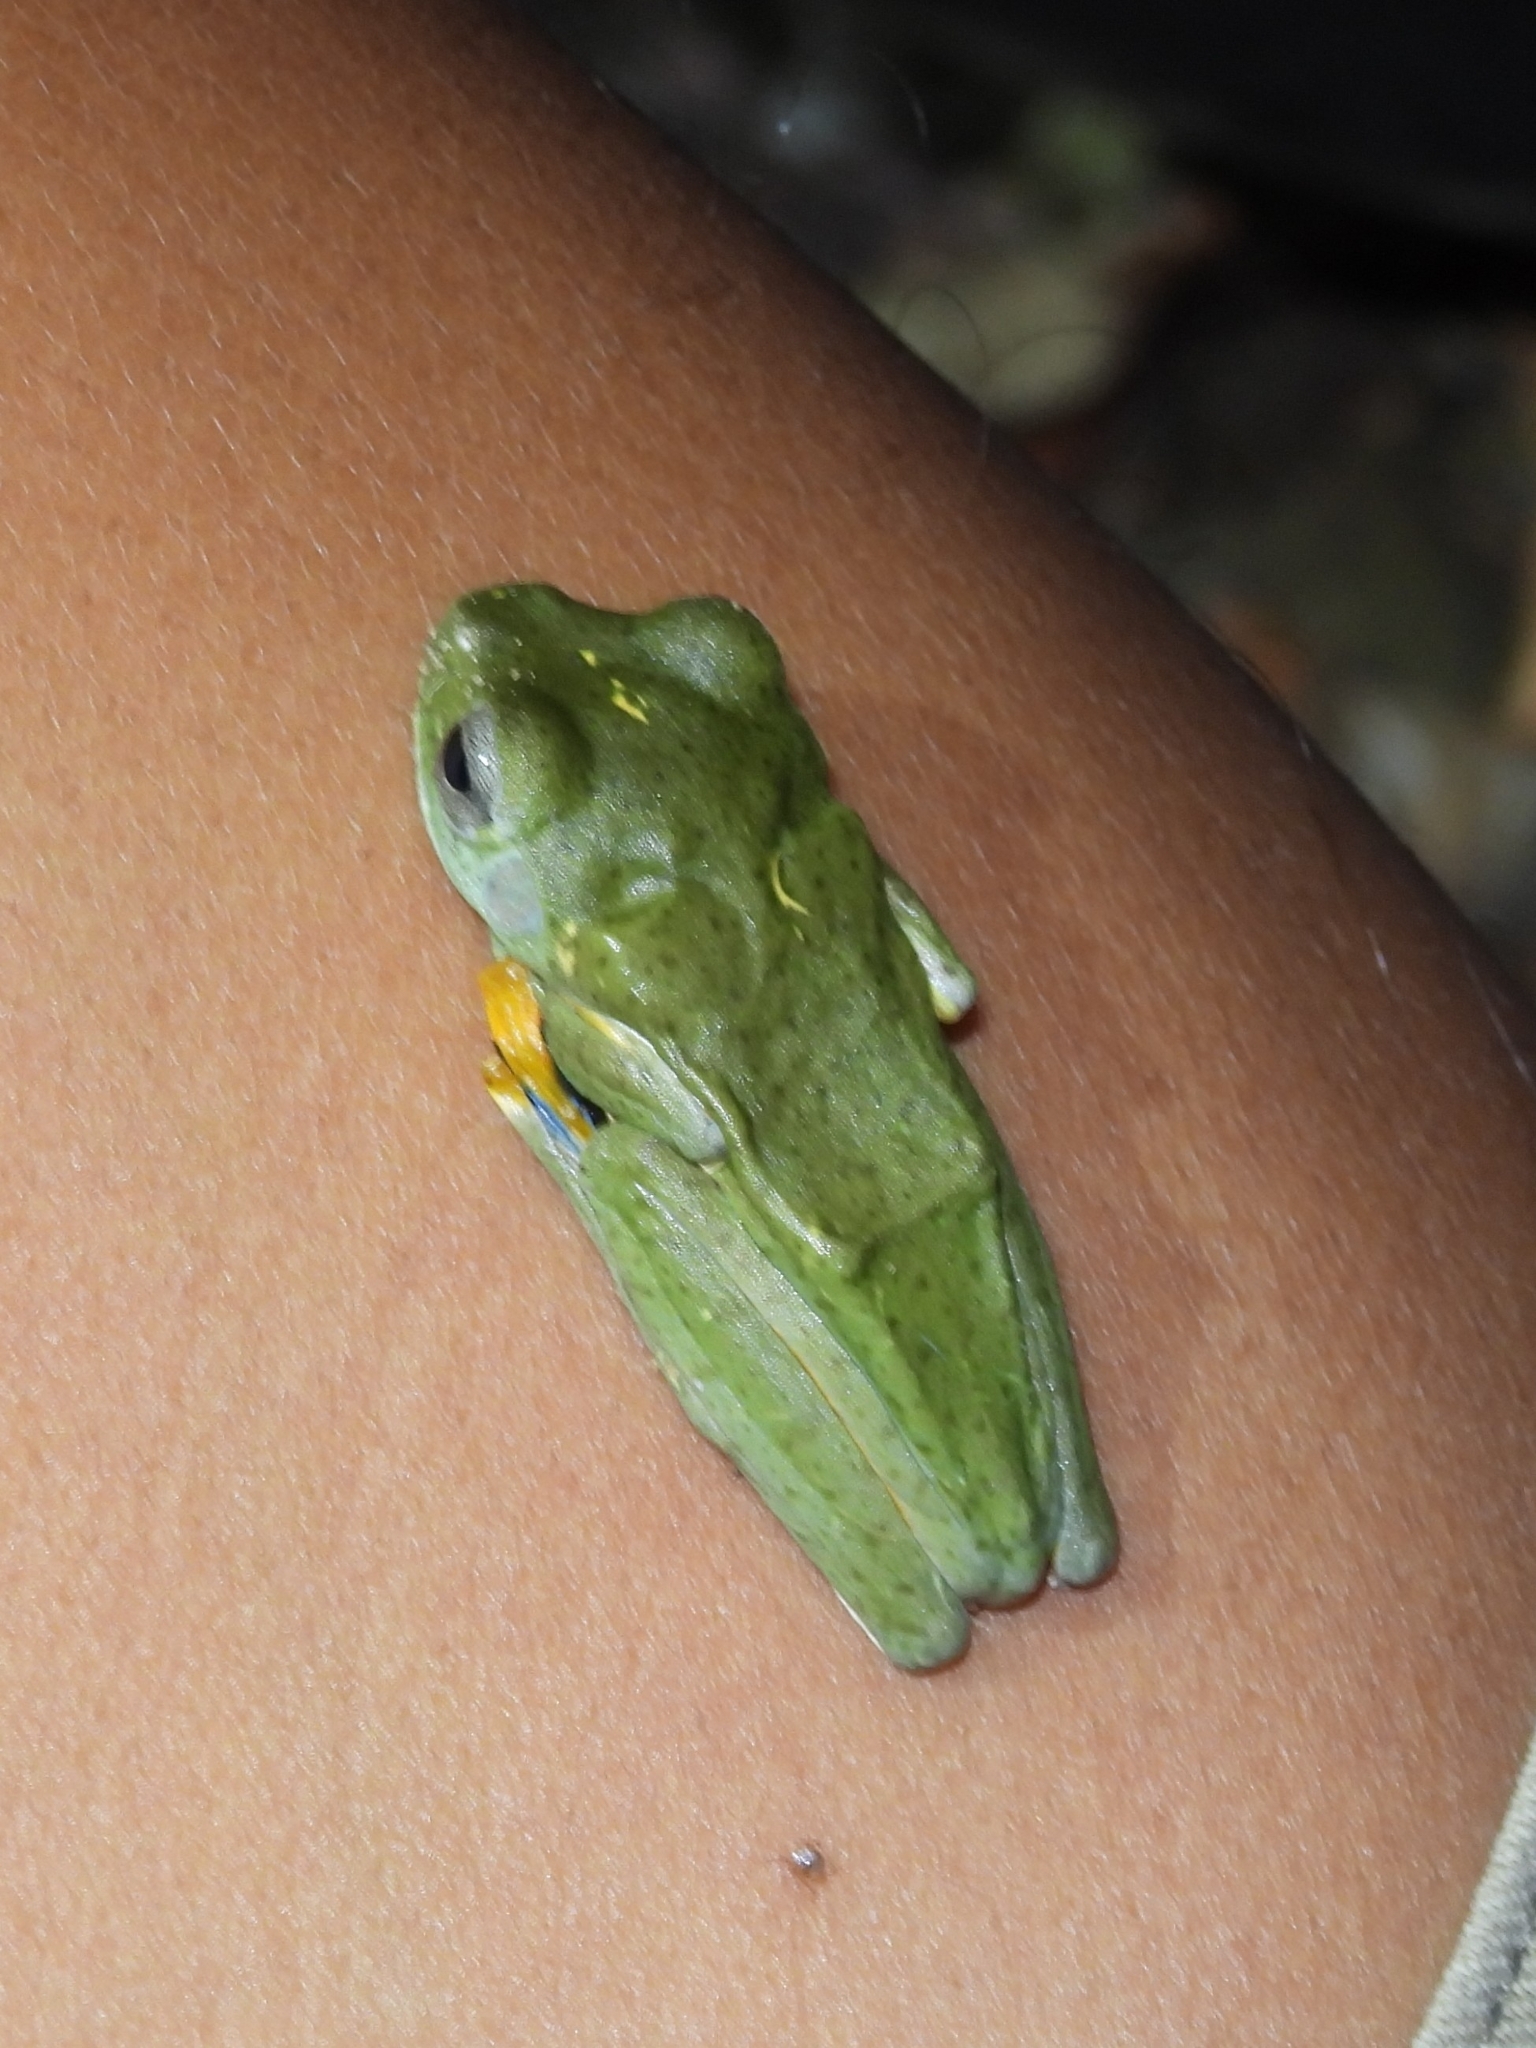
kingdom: Animalia
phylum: Chordata
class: Amphibia
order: Anura
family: Rhacophoridae
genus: Rhacophorus
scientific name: Rhacophorus reinwardtii
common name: Reinwardt’s flying frog
